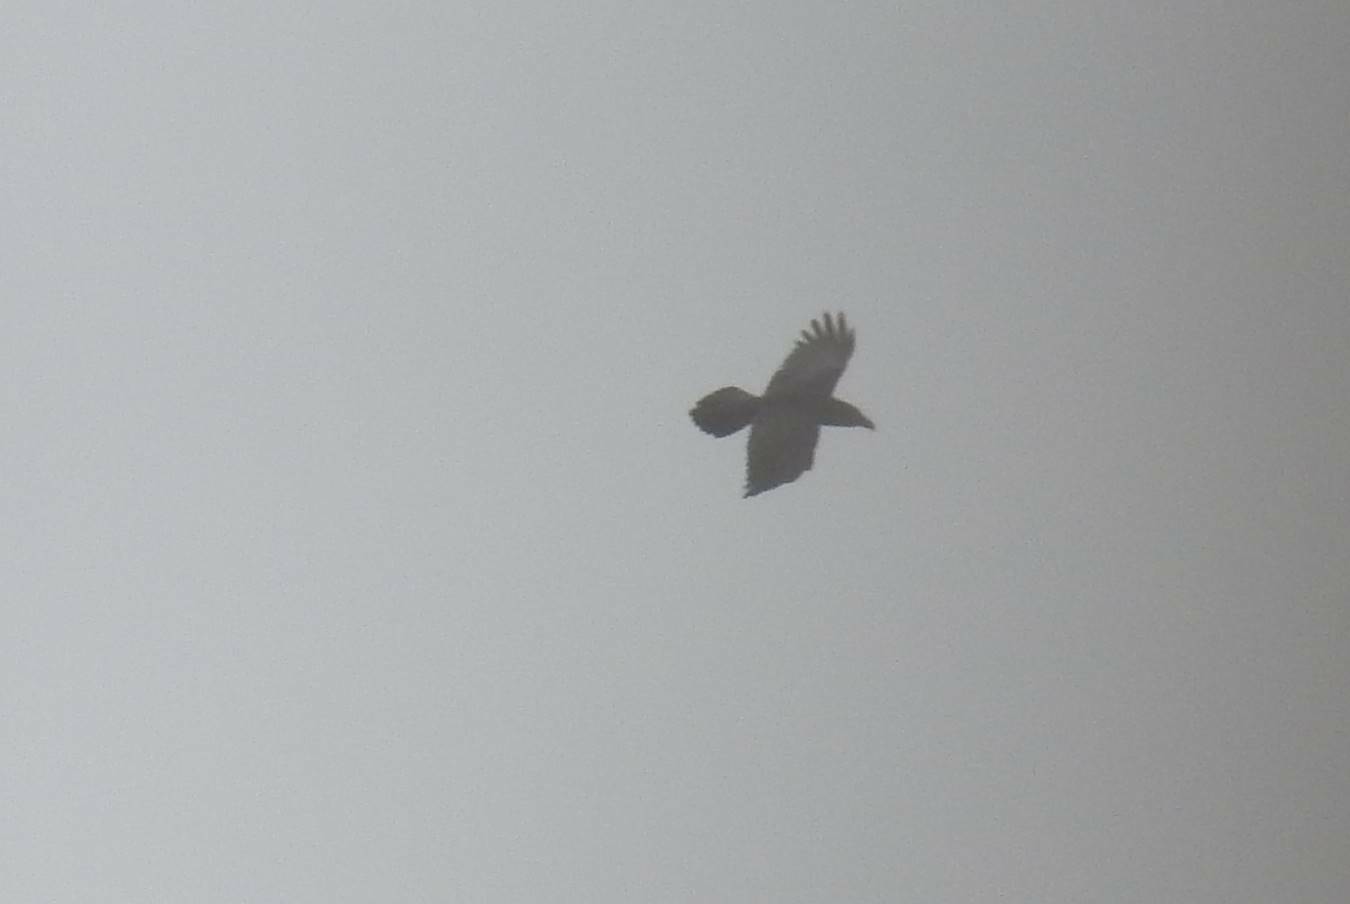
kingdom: Animalia
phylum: Chordata
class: Aves
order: Passeriformes
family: Corvidae
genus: Corvus
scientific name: Corvus corax
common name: Common raven
